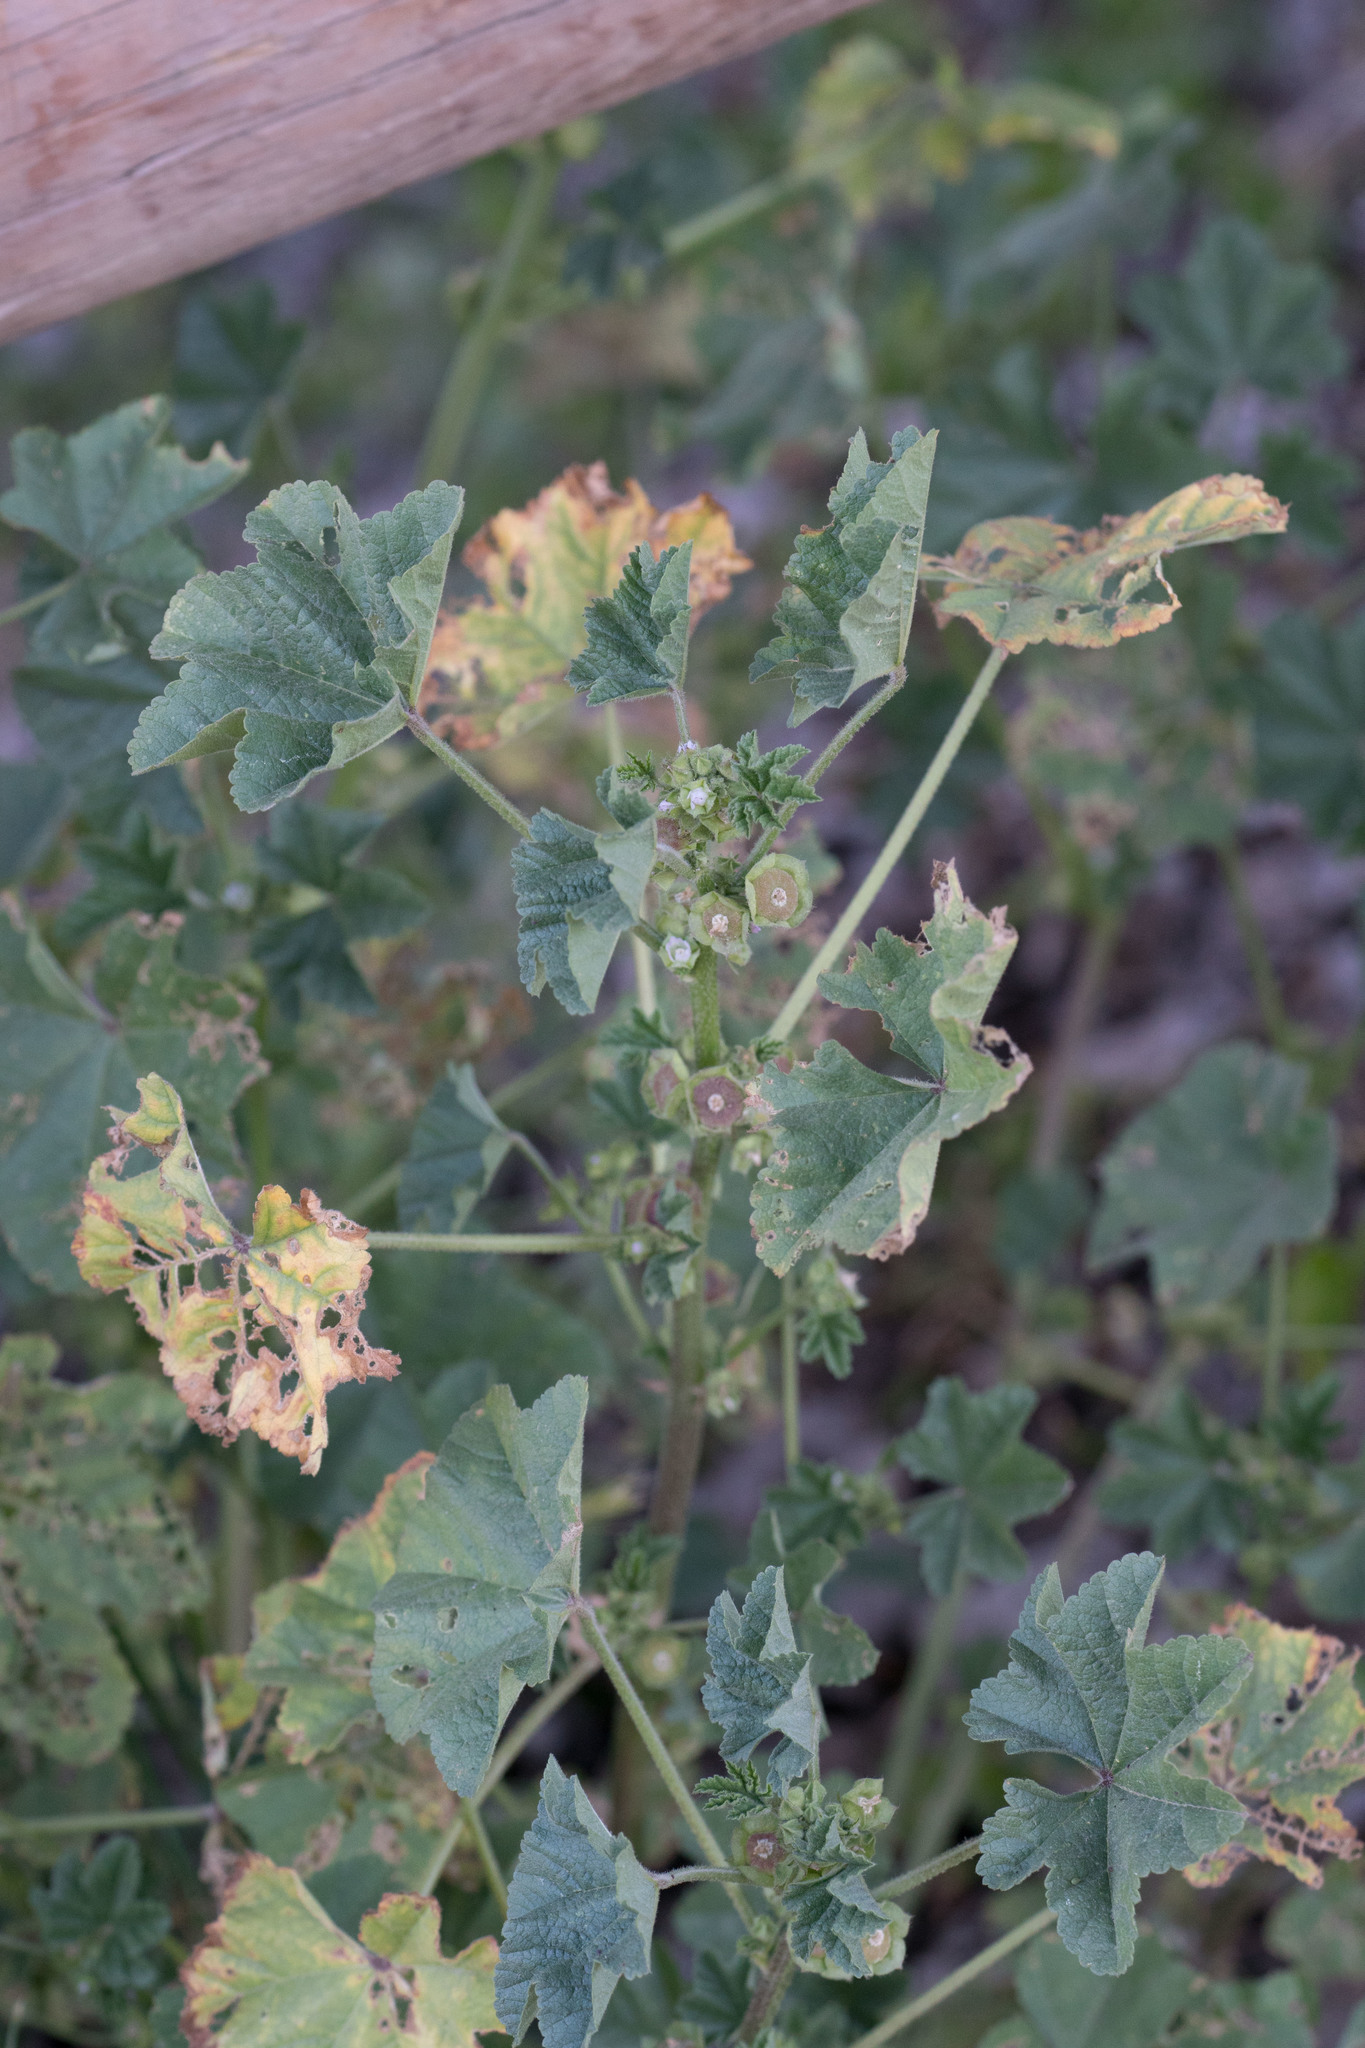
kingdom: Plantae
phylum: Tracheophyta
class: Magnoliopsida
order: Malvales
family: Malvaceae
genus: Malva
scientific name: Malva parviflora
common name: Least mallow
